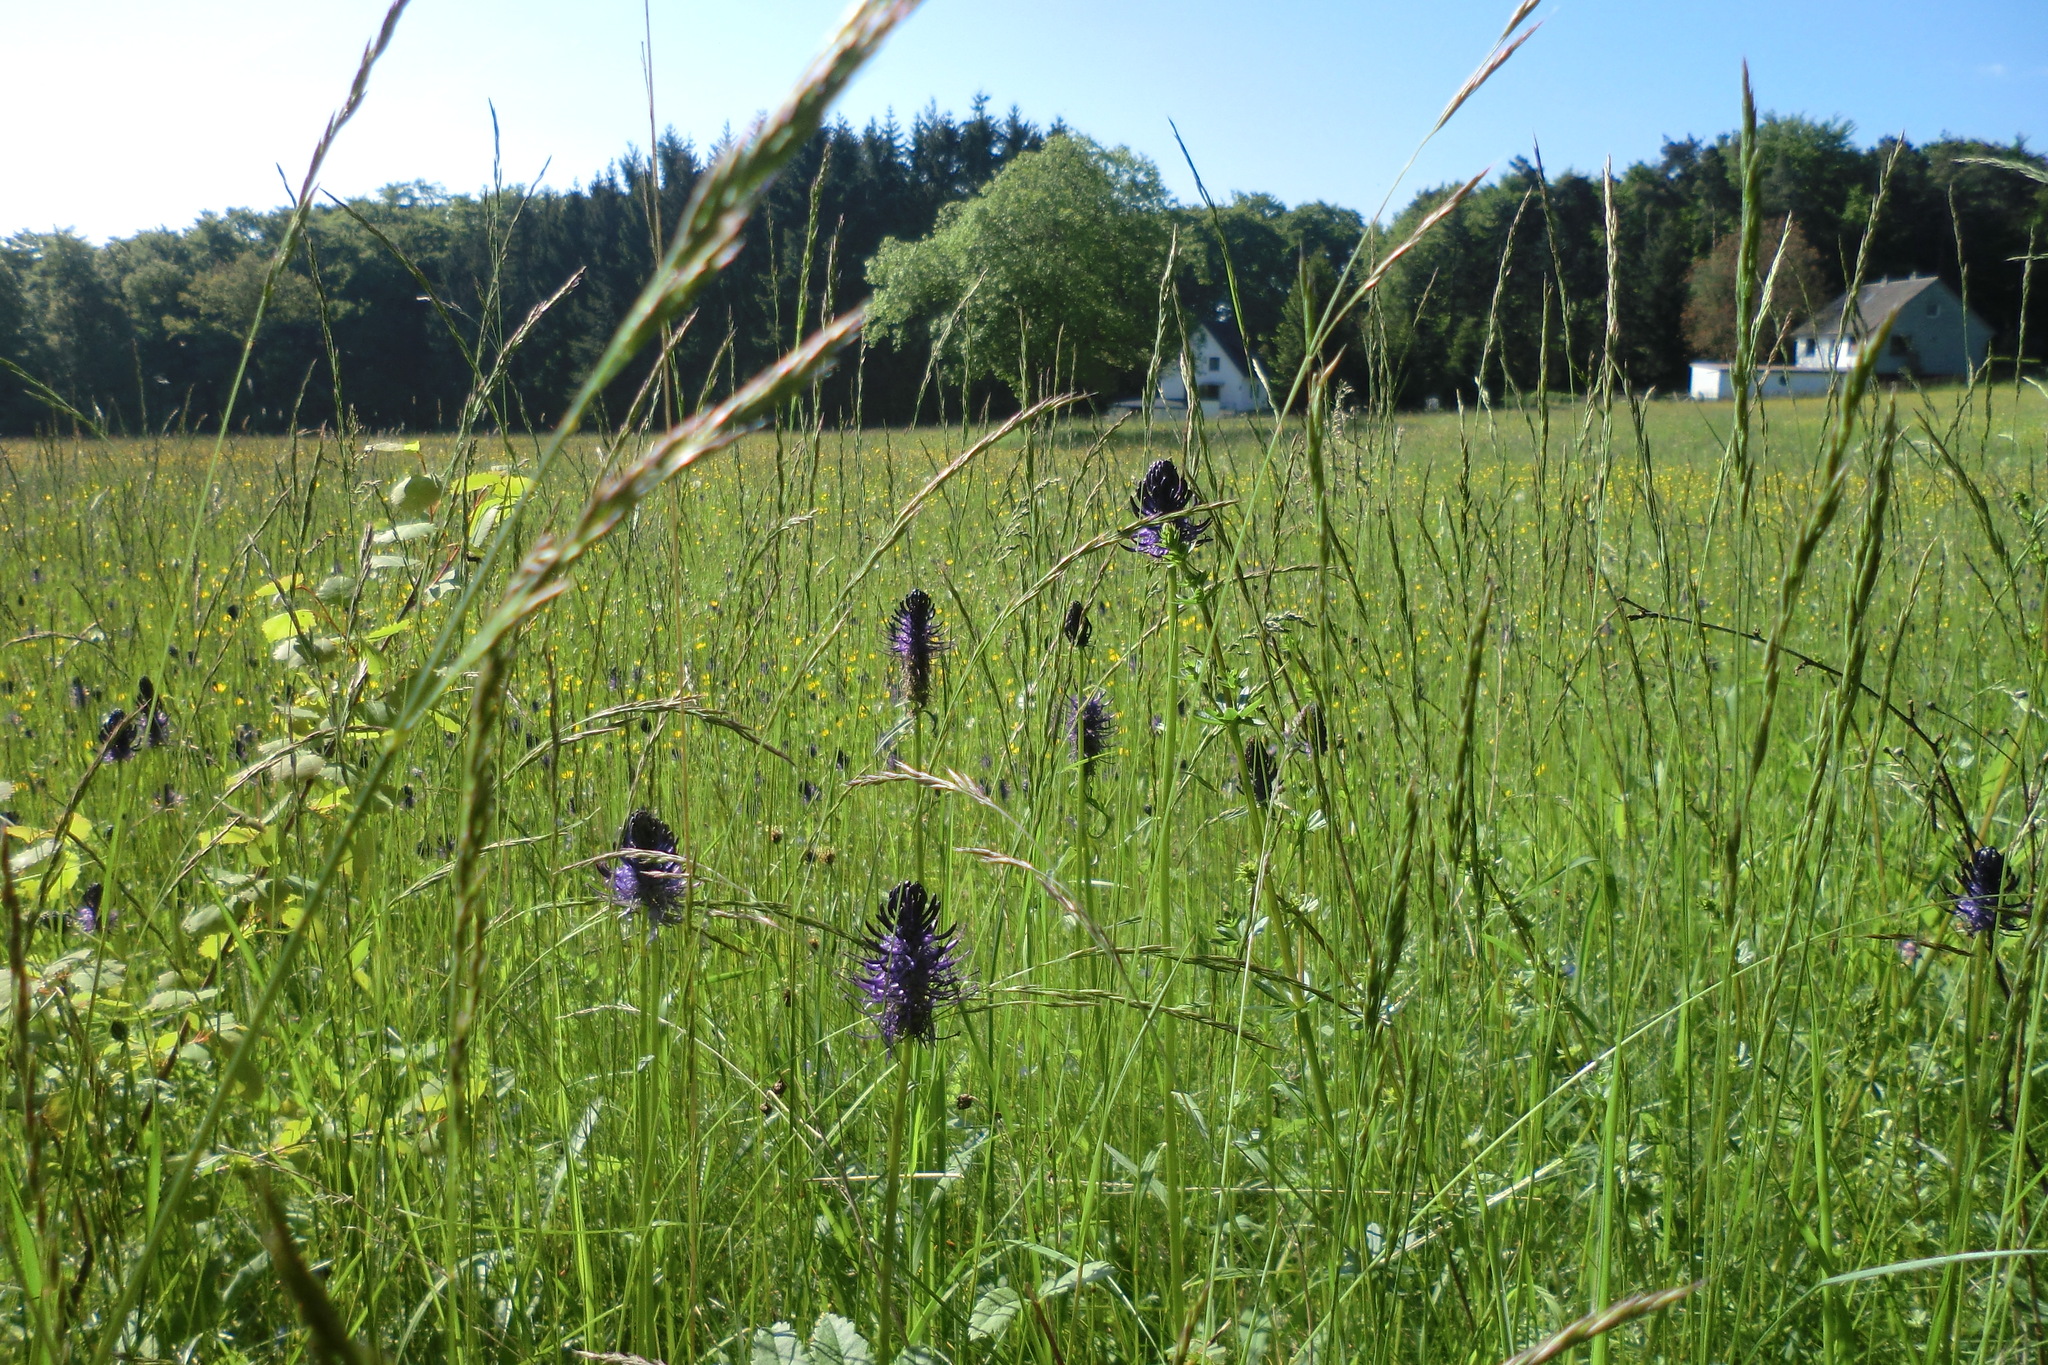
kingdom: Plantae
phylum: Tracheophyta
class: Magnoliopsida
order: Asterales
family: Campanulaceae
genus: Phyteuma
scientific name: Phyteuma nigrum
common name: Black rampion
